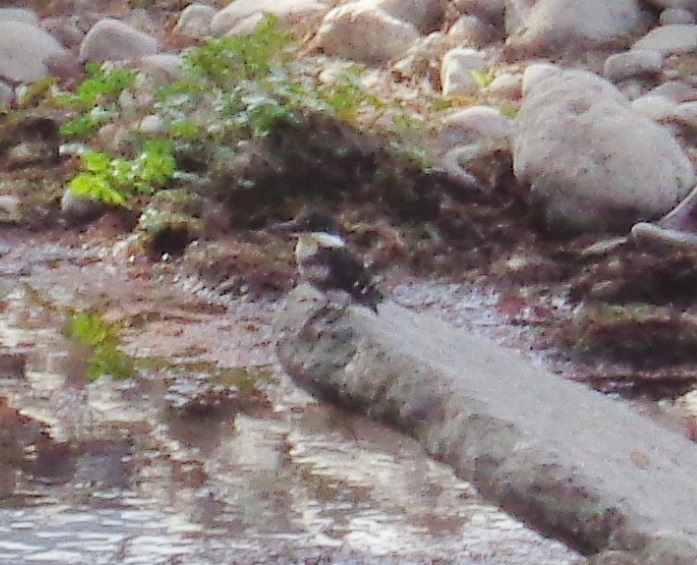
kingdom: Animalia
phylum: Chordata
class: Aves
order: Coraciiformes
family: Alcedinidae
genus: Chloroceryle
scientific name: Chloroceryle americana
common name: Green kingfisher
